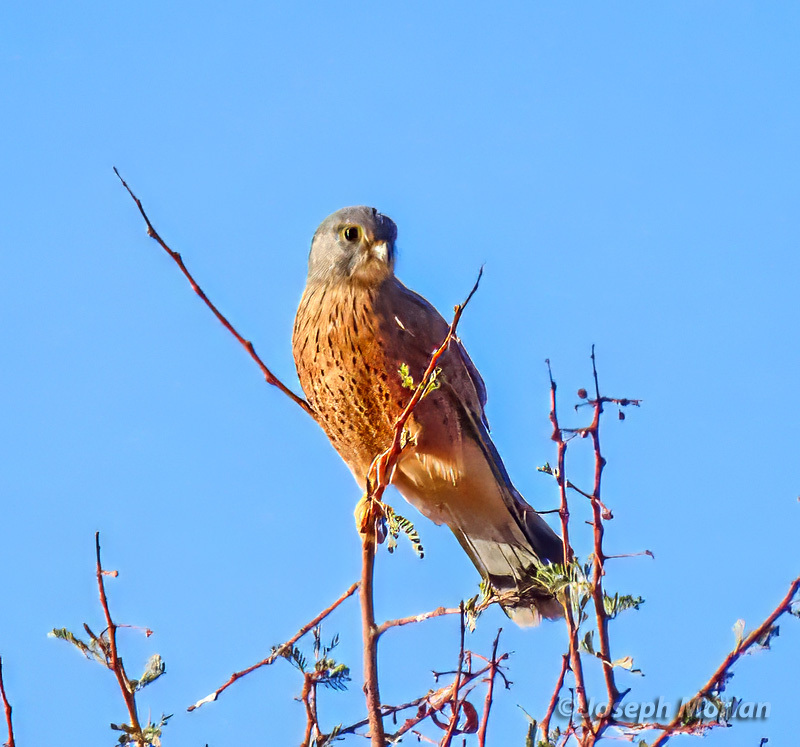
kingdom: Animalia
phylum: Chordata
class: Aves
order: Falconiformes
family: Falconidae
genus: Falco
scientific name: Falco rupicolus
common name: Rock kestrel
